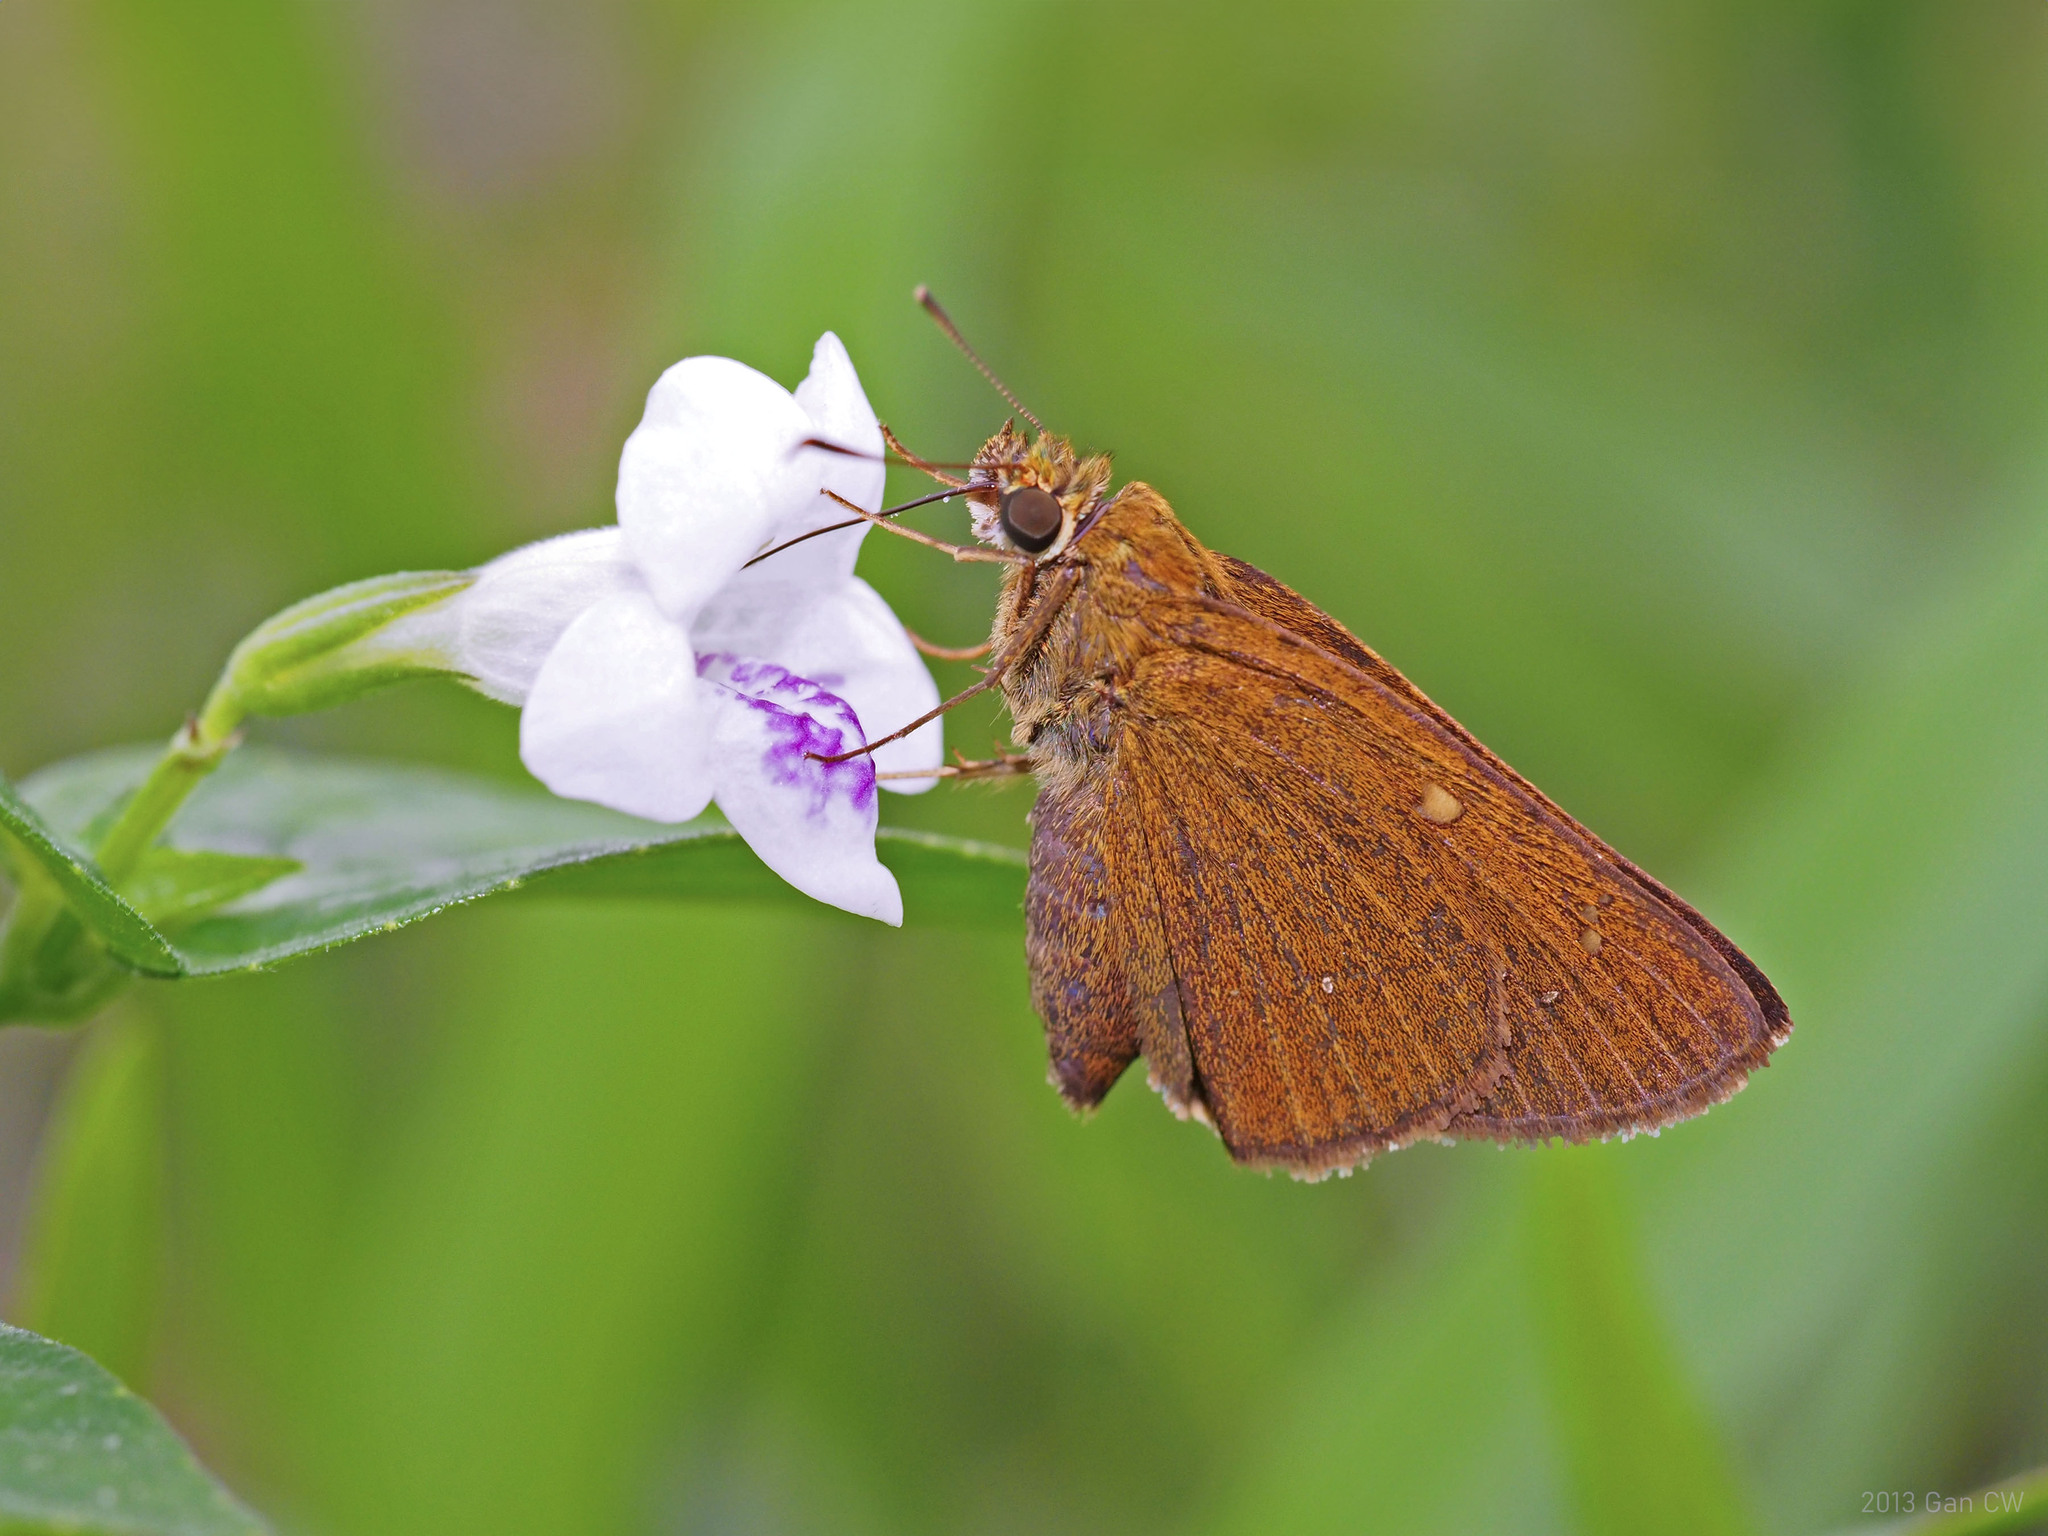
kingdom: Animalia
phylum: Arthropoda
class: Insecta
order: Lepidoptera
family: Hesperiidae
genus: Polytremis
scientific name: Polytremis lubricans
